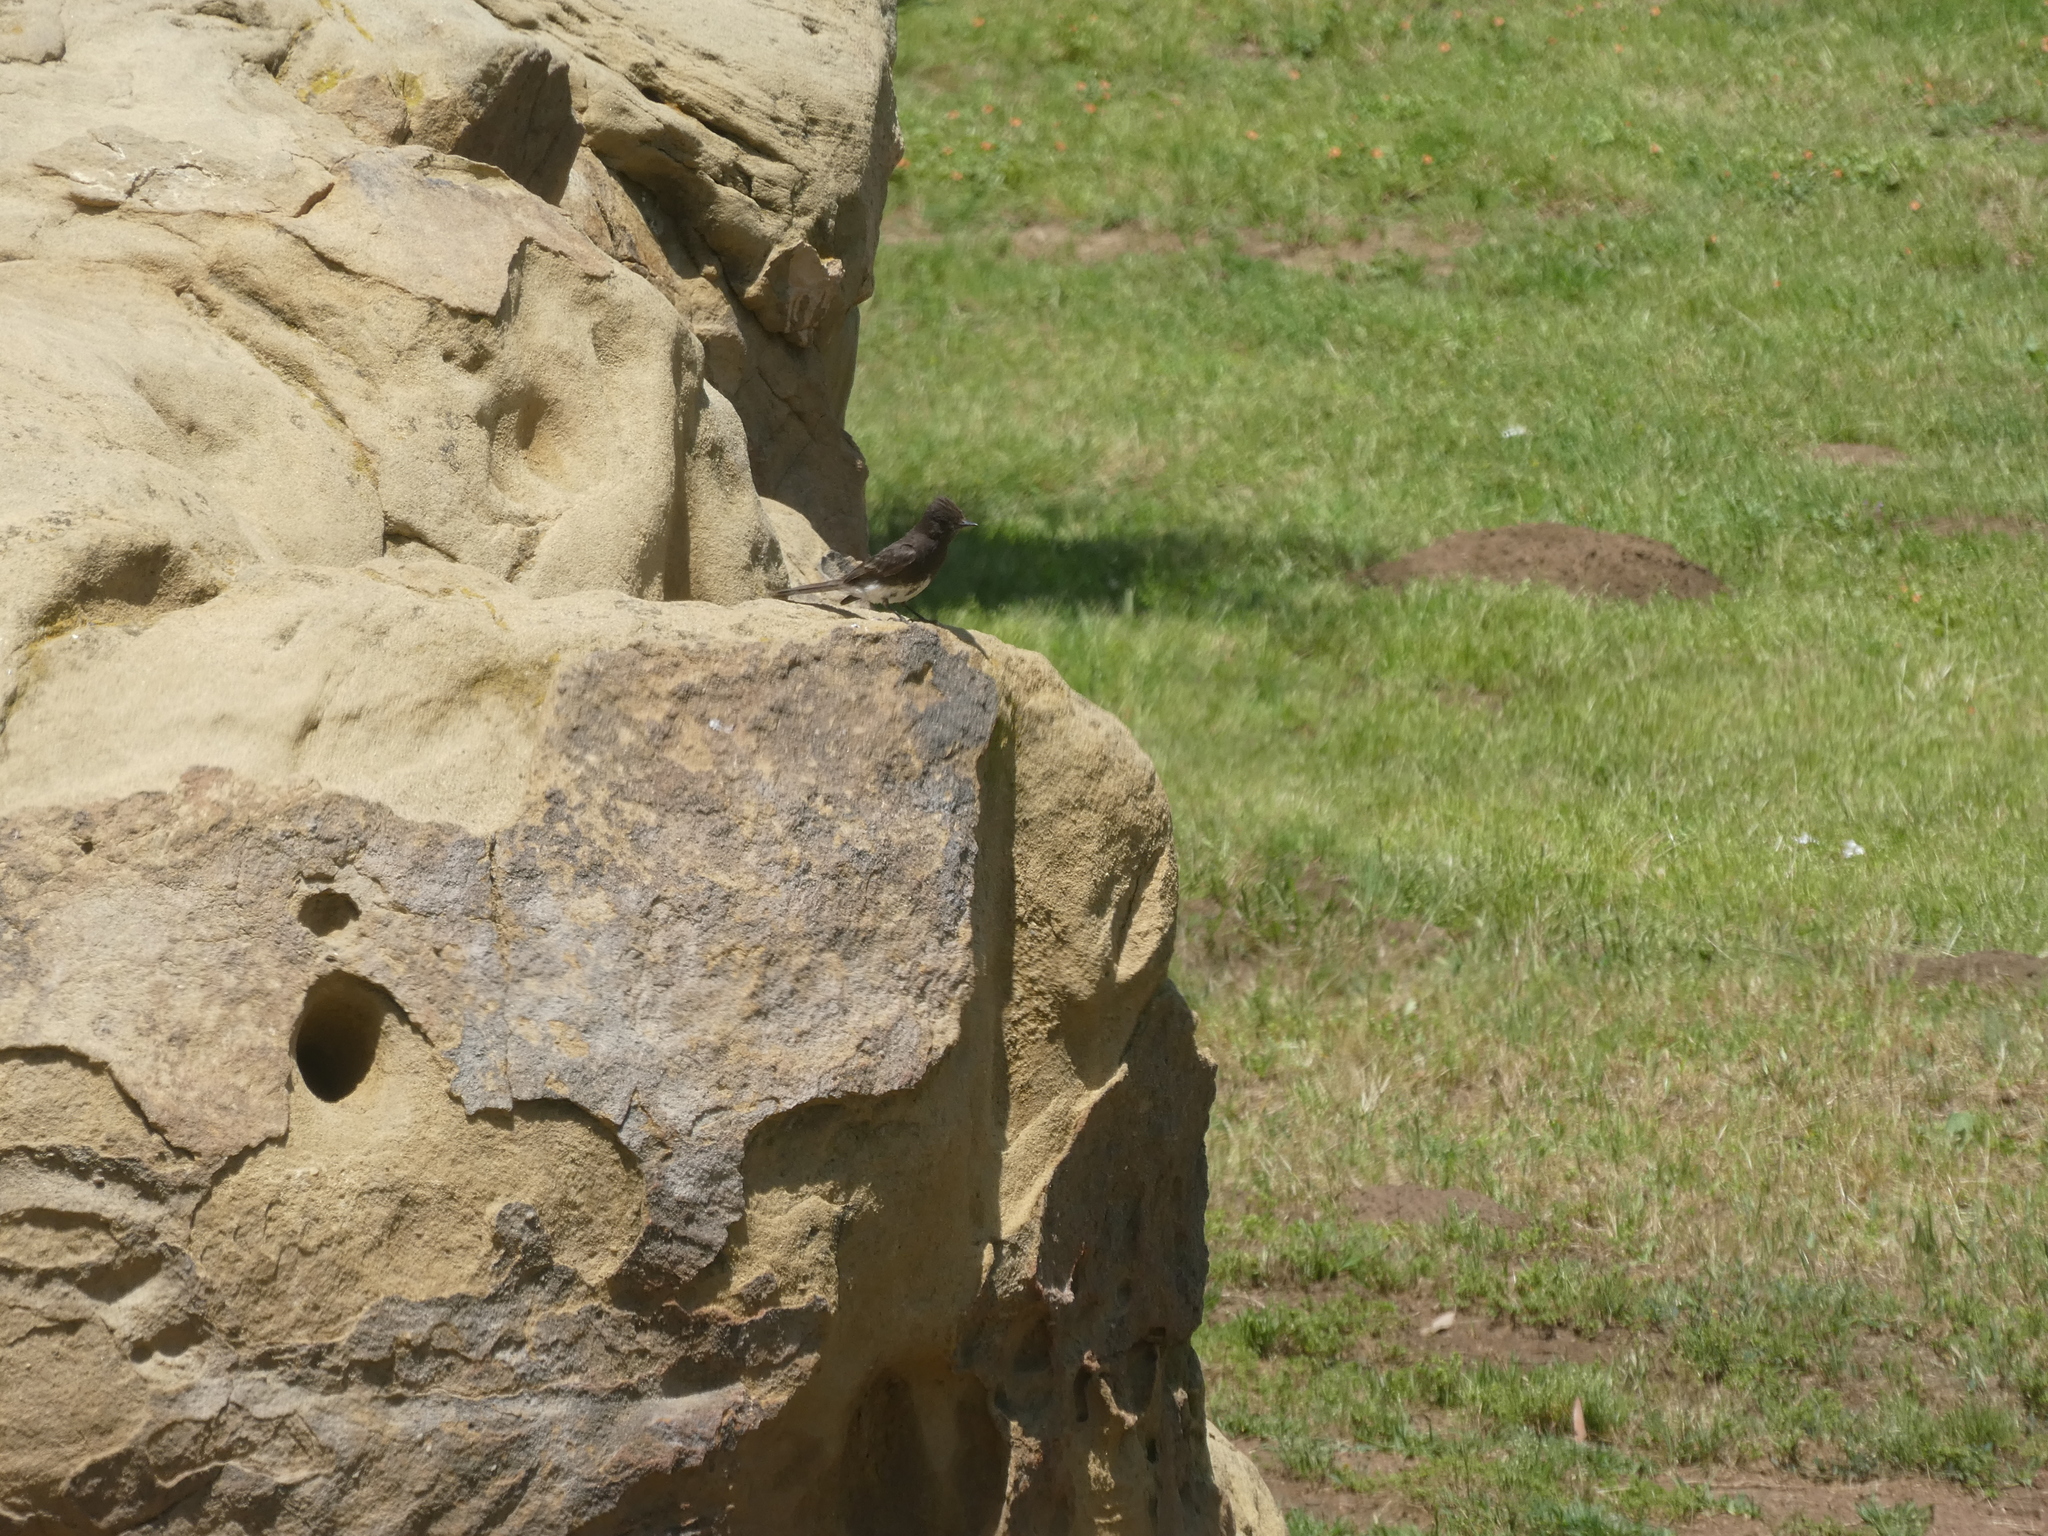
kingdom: Animalia
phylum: Chordata
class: Aves
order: Passeriformes
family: Tyrannidae
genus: Sayornis
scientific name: Sayornis nigricans
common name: Black phoebe
